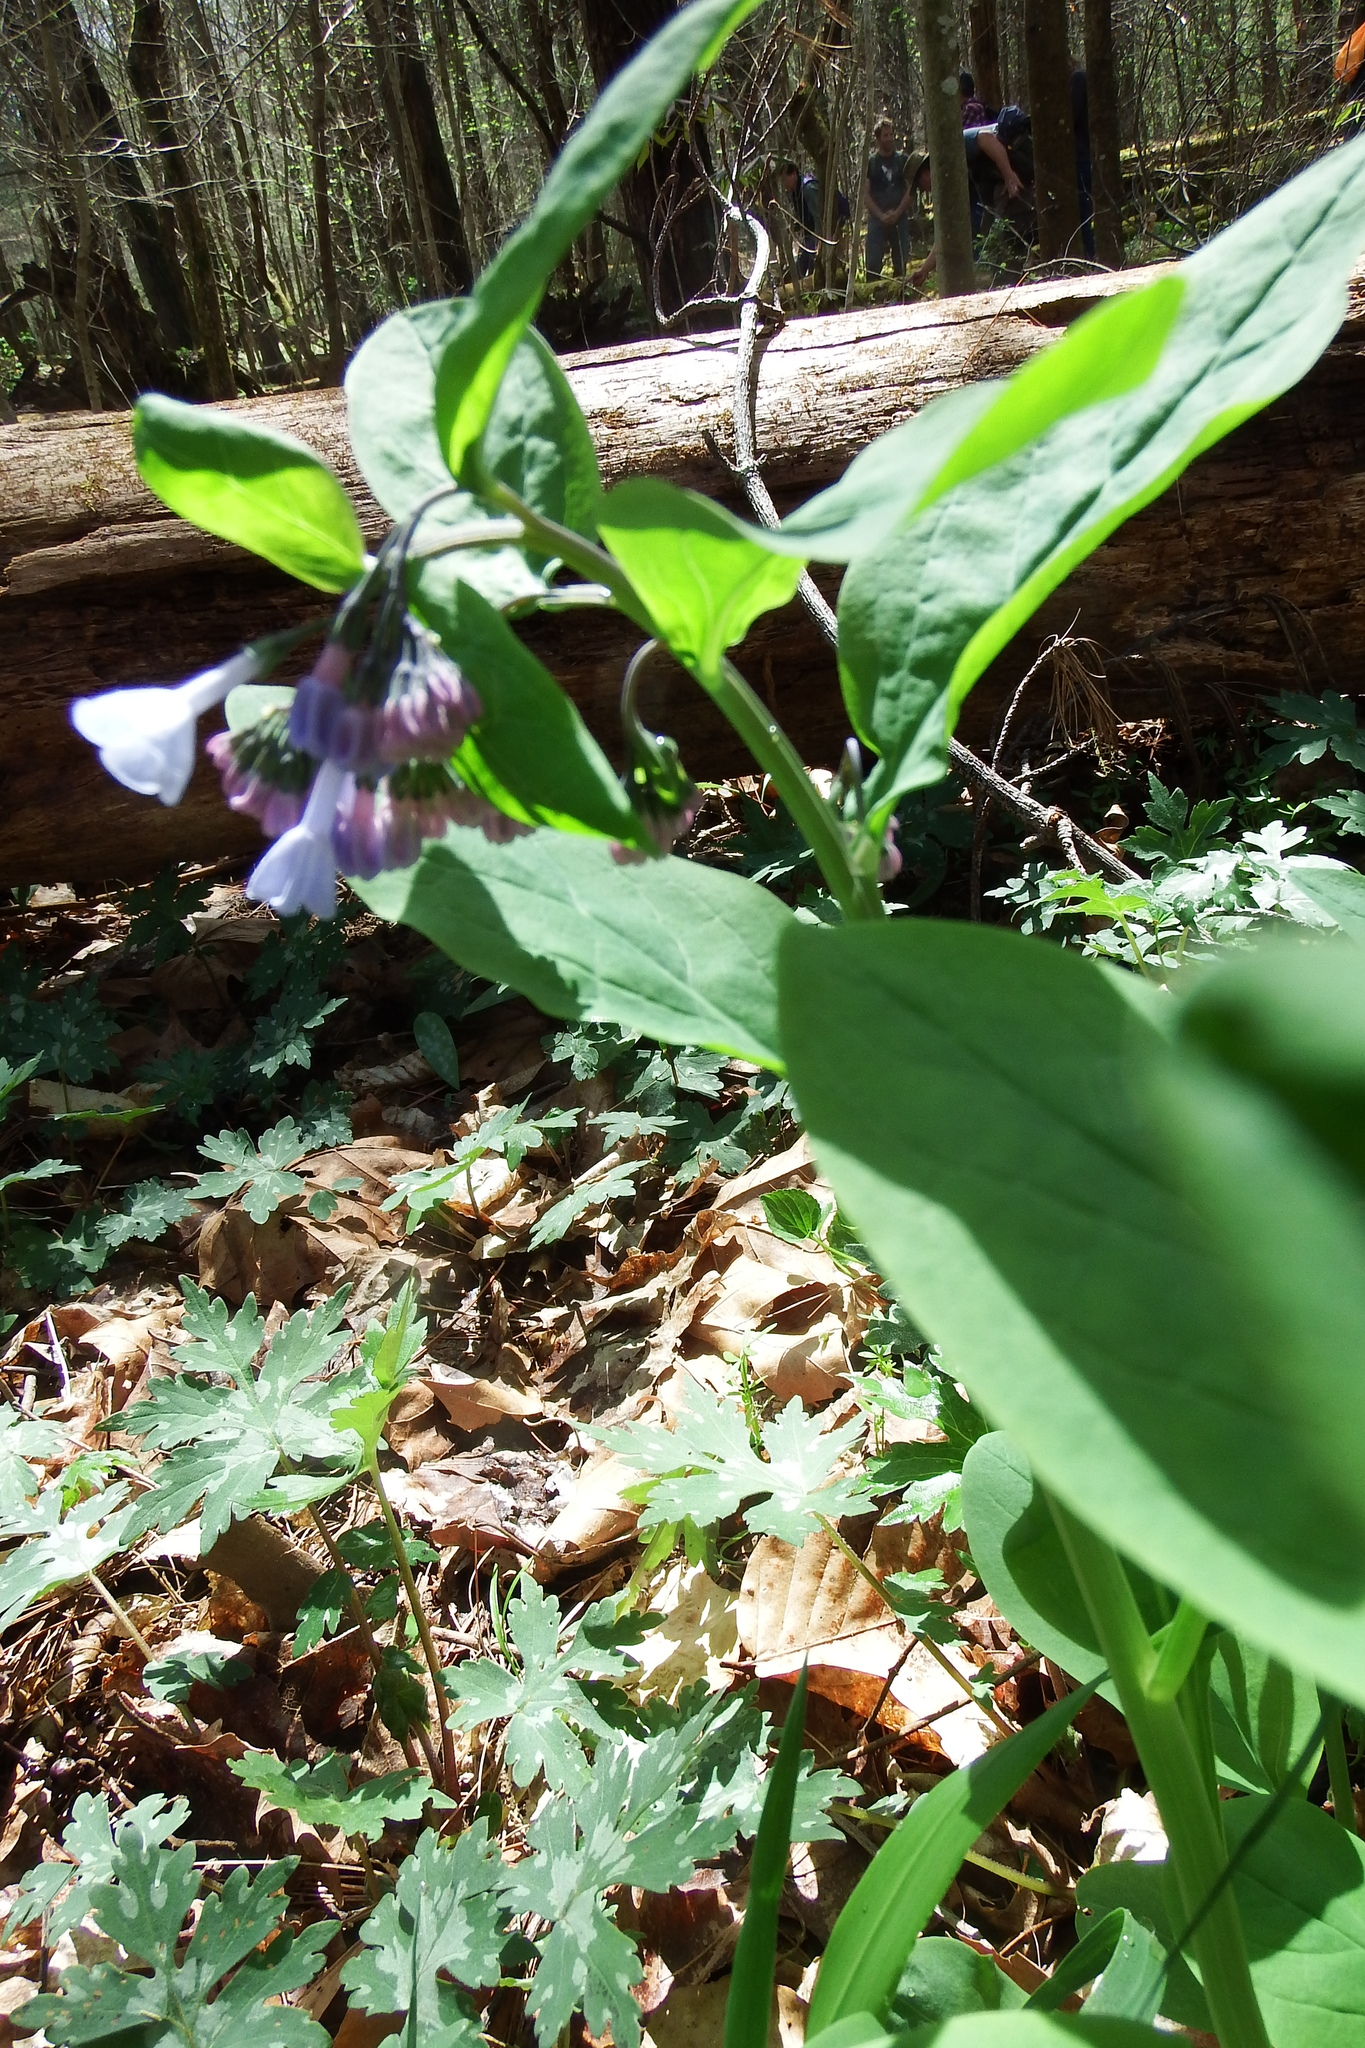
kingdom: Plantae
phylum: Tracheophyta
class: Magnoliopsida
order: Boraginales
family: Boraginaceae
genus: Mertensia
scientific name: Mertensia virginica
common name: Virginia bluebells
